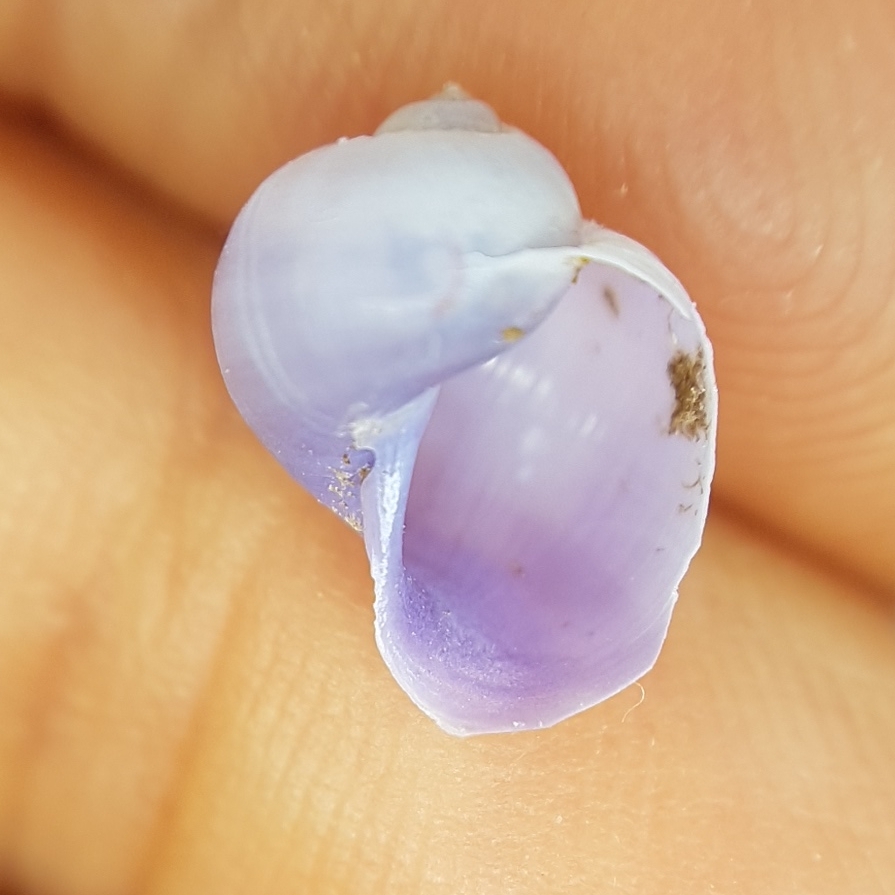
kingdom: Animalia
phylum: Mollusca
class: Gastropoda
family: Epitoniidae
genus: Janthina
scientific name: Janthina pallida
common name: Pale janthina
